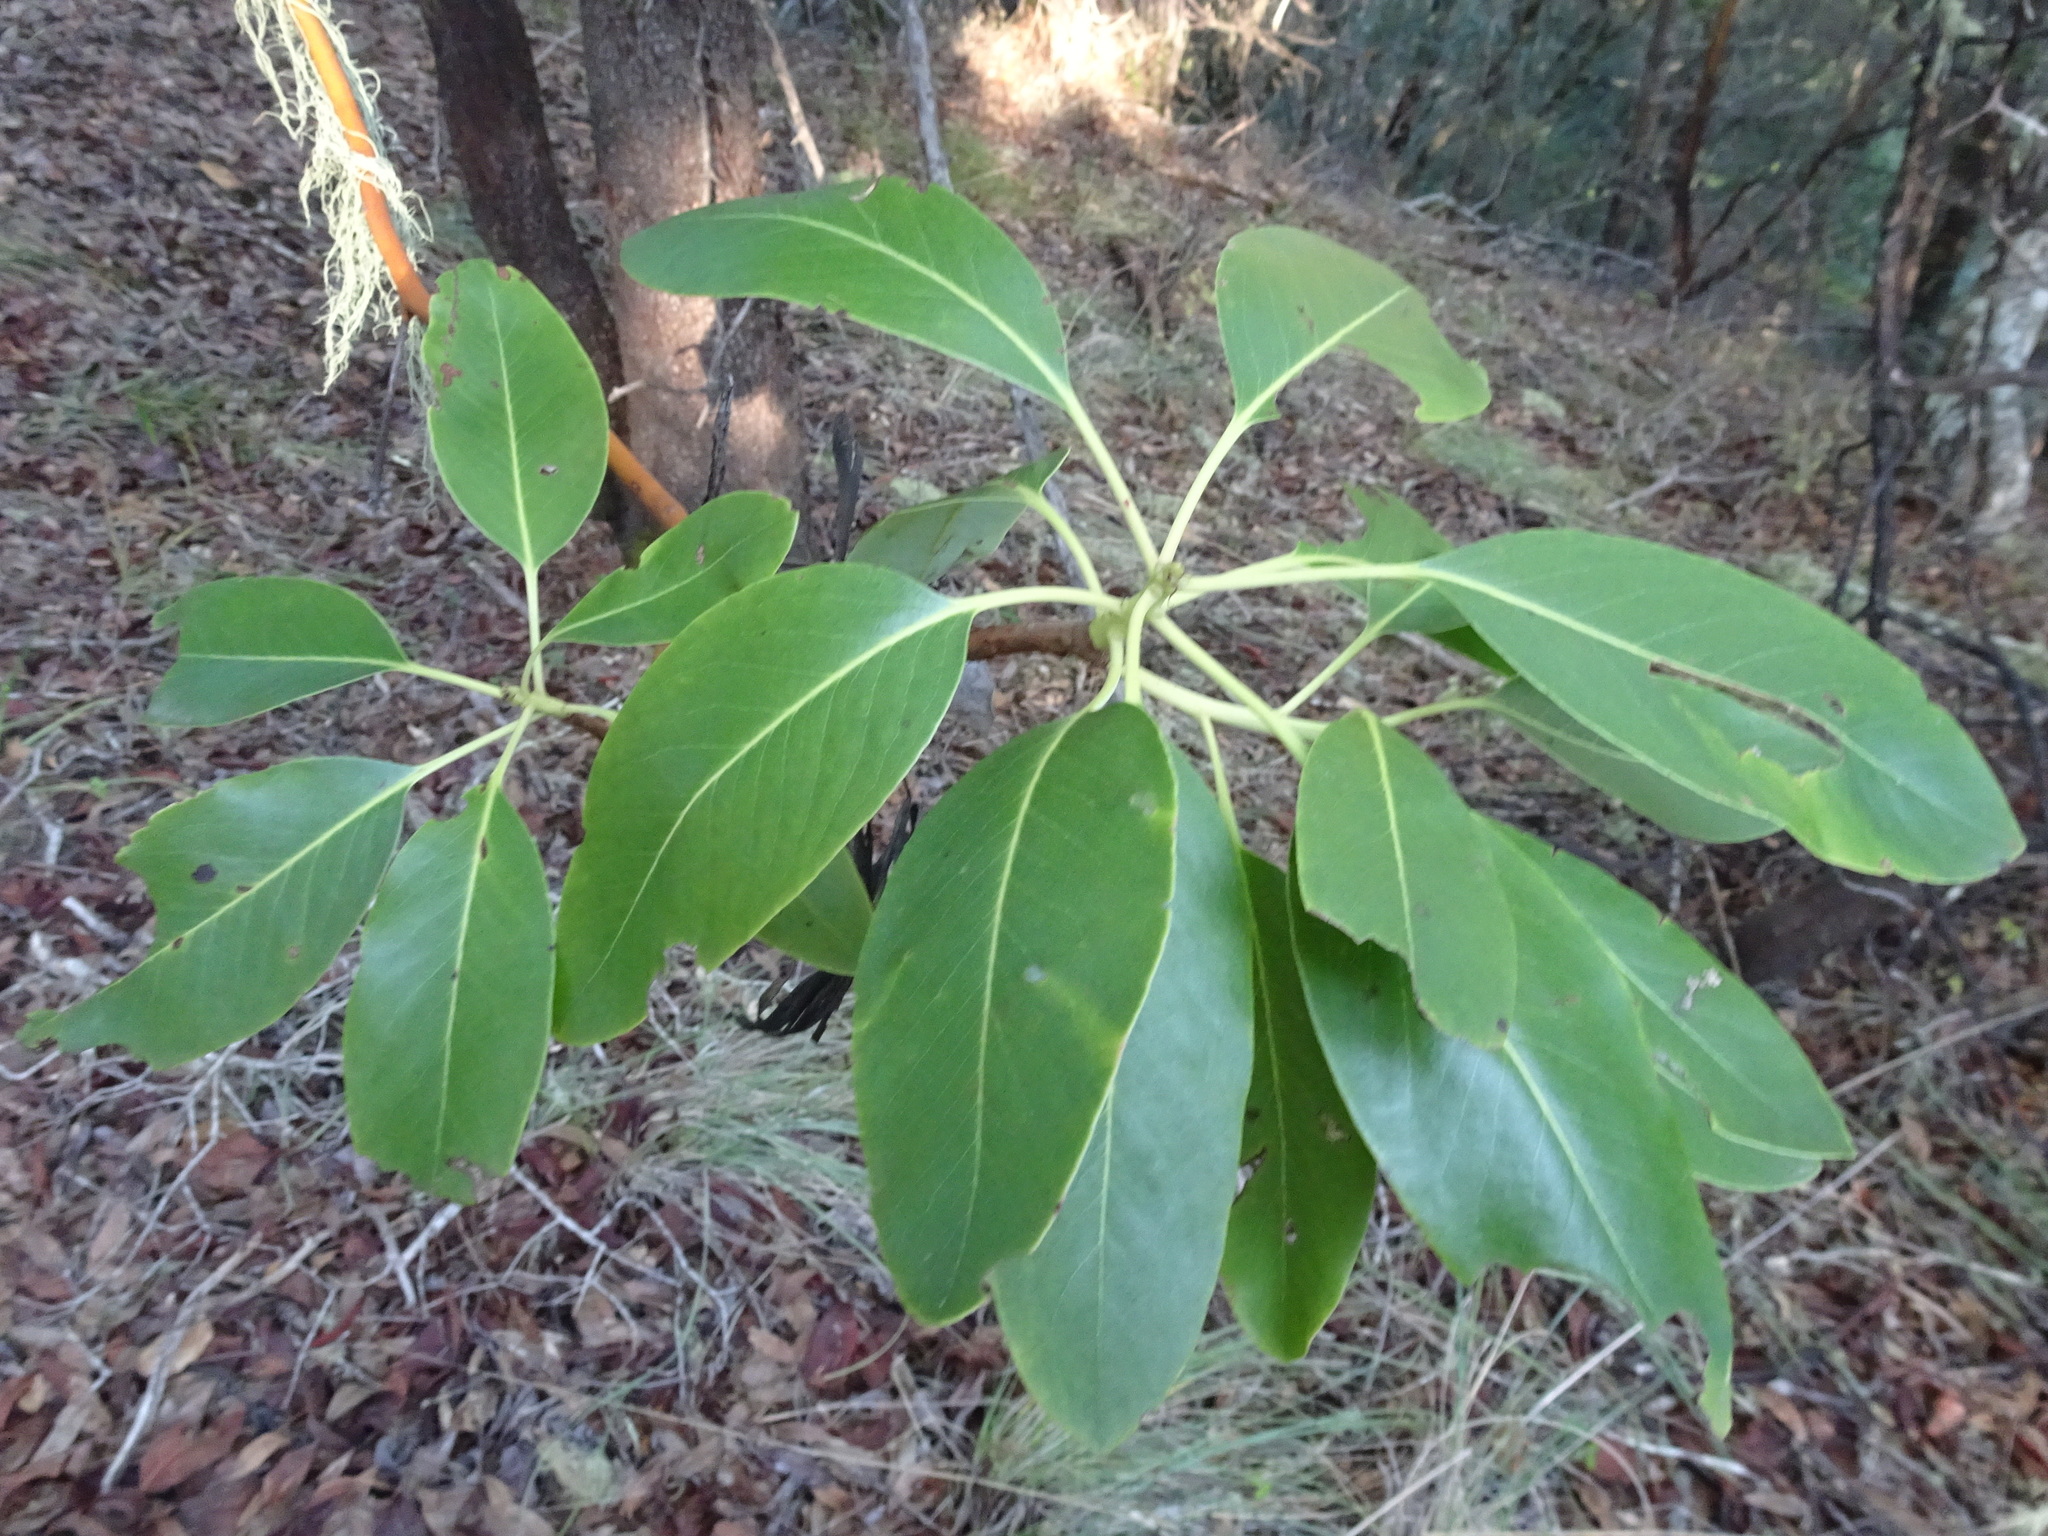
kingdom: Plantae
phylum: Tracheophyta
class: Magnoliopsida
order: Ericales
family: Ericaceae
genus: Arbutus
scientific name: Arbutus menziesii
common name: Pacific madrone
